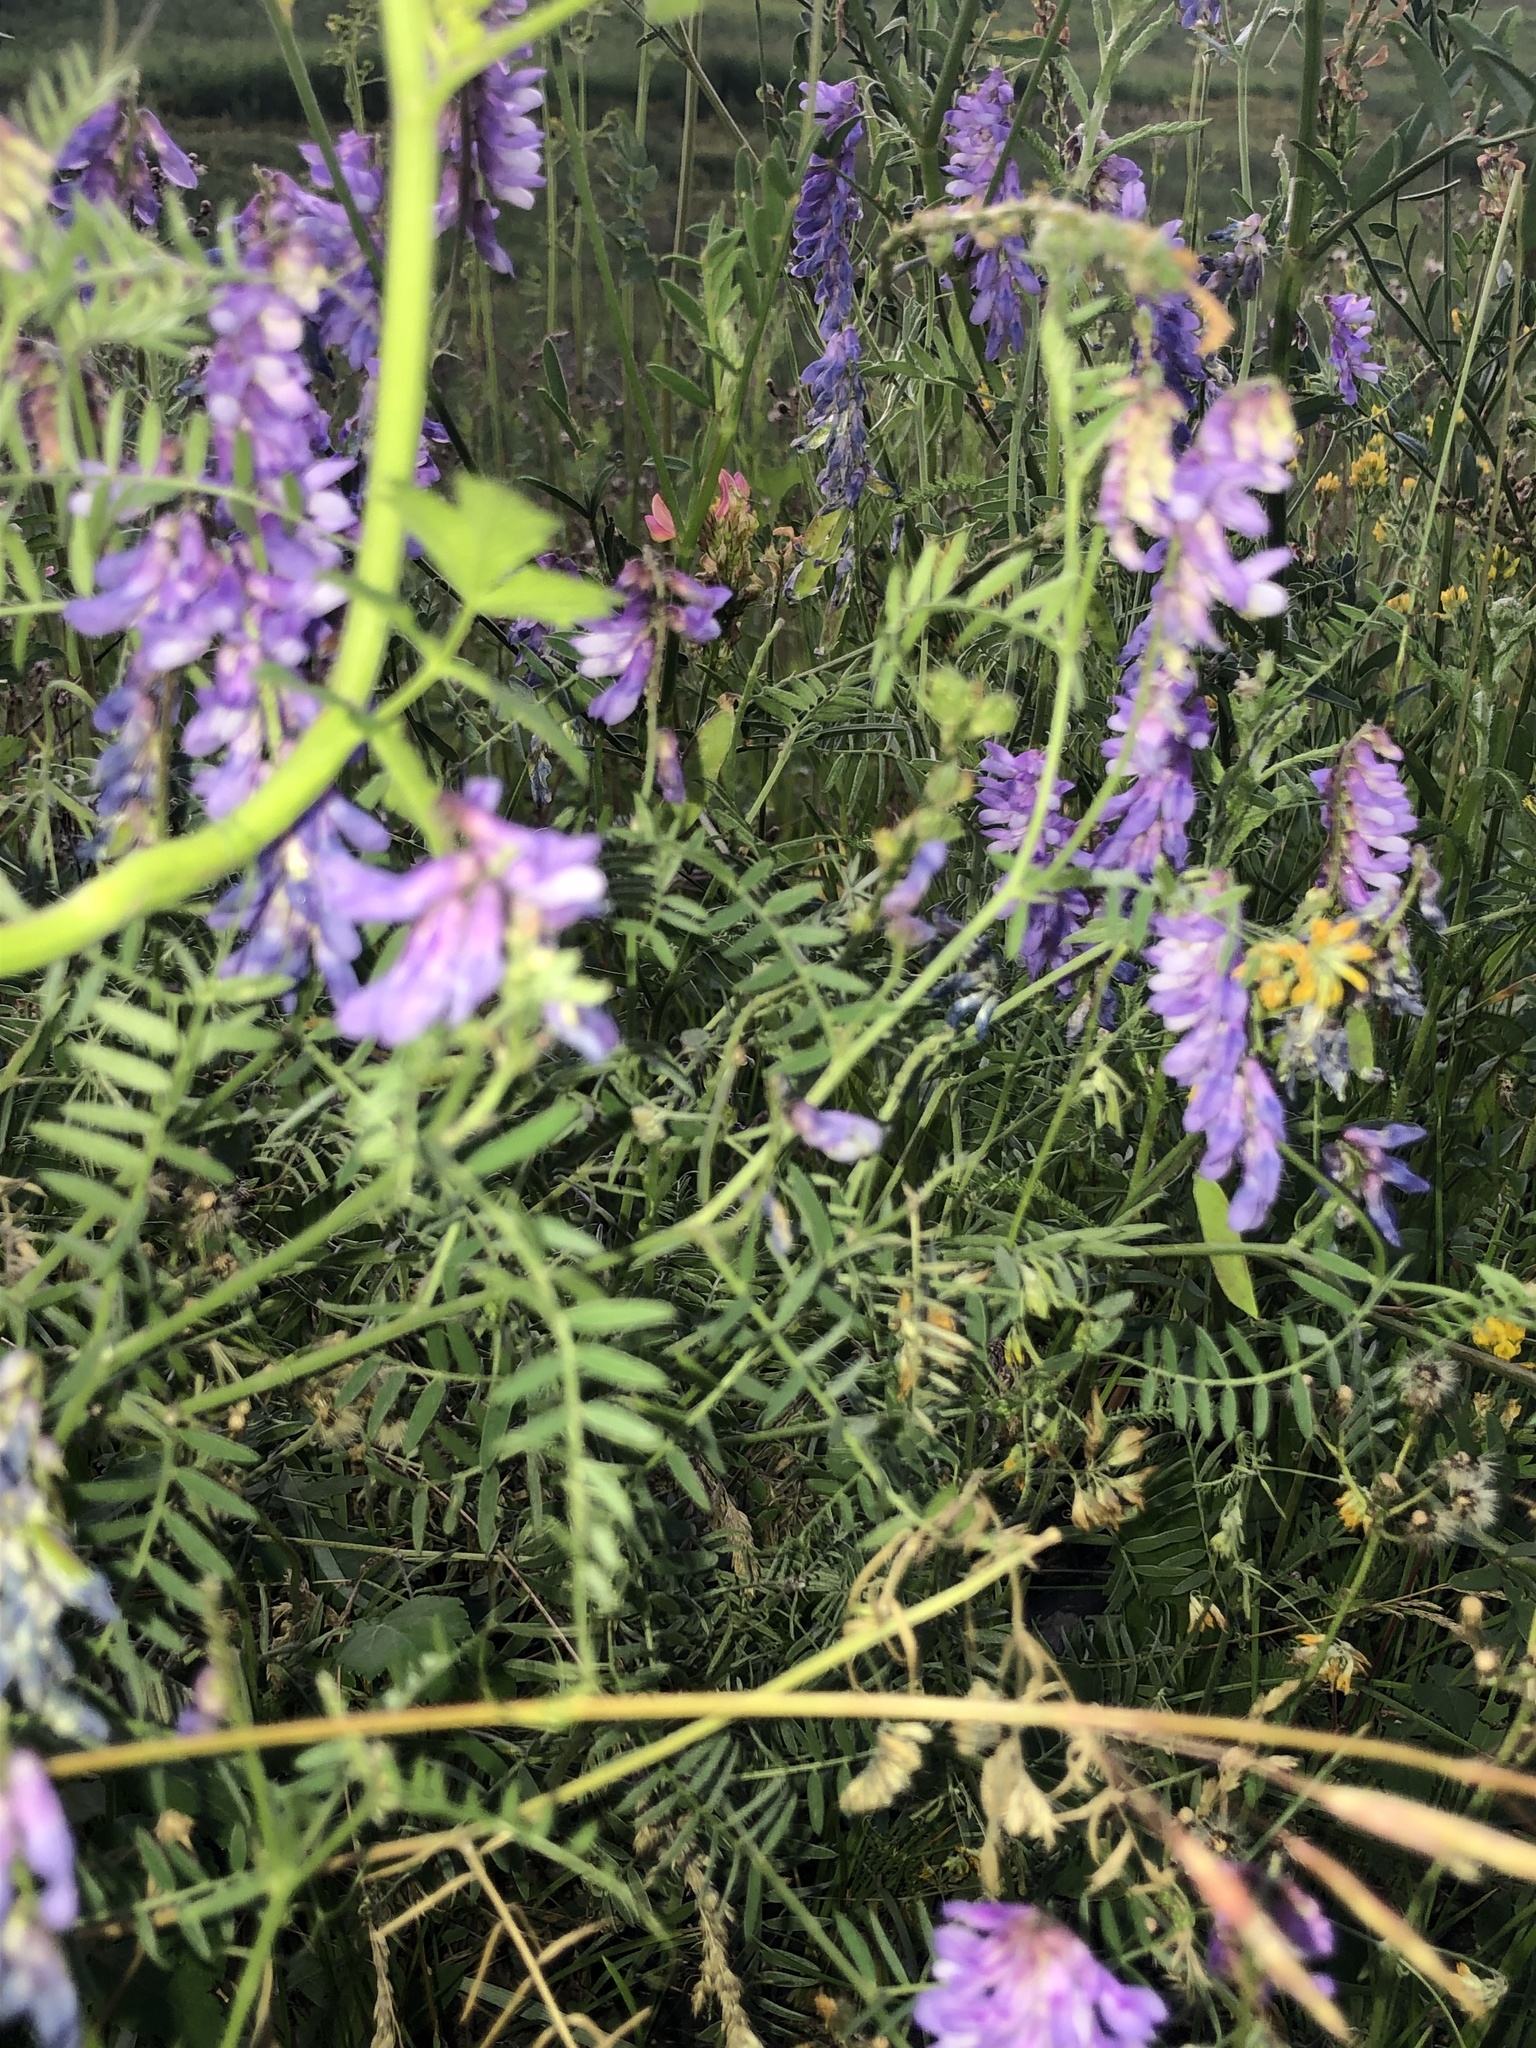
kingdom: Plantae
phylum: Tracheophyta
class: Magnoliopsida
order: Fabales
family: Fabaceae
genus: Vicia
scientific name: Vicia cracca
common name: Bird vetch
